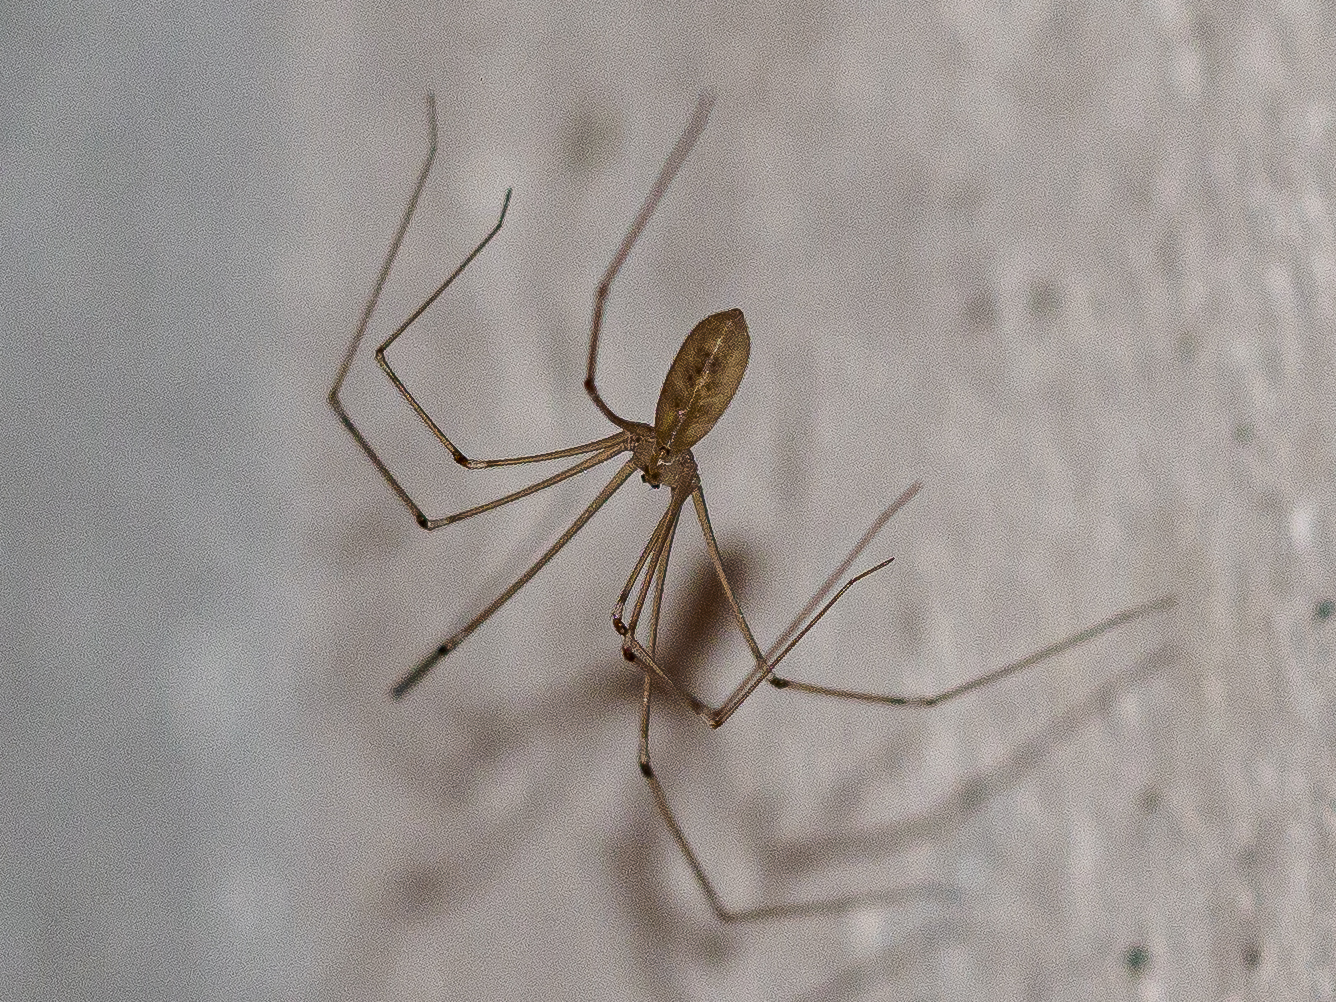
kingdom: Animalia
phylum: Arthropoda
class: Arachnida
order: Araneae
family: Pholcidae
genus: Pholcus
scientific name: Pholcus phalangioides
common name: Longbodied cellar spider
